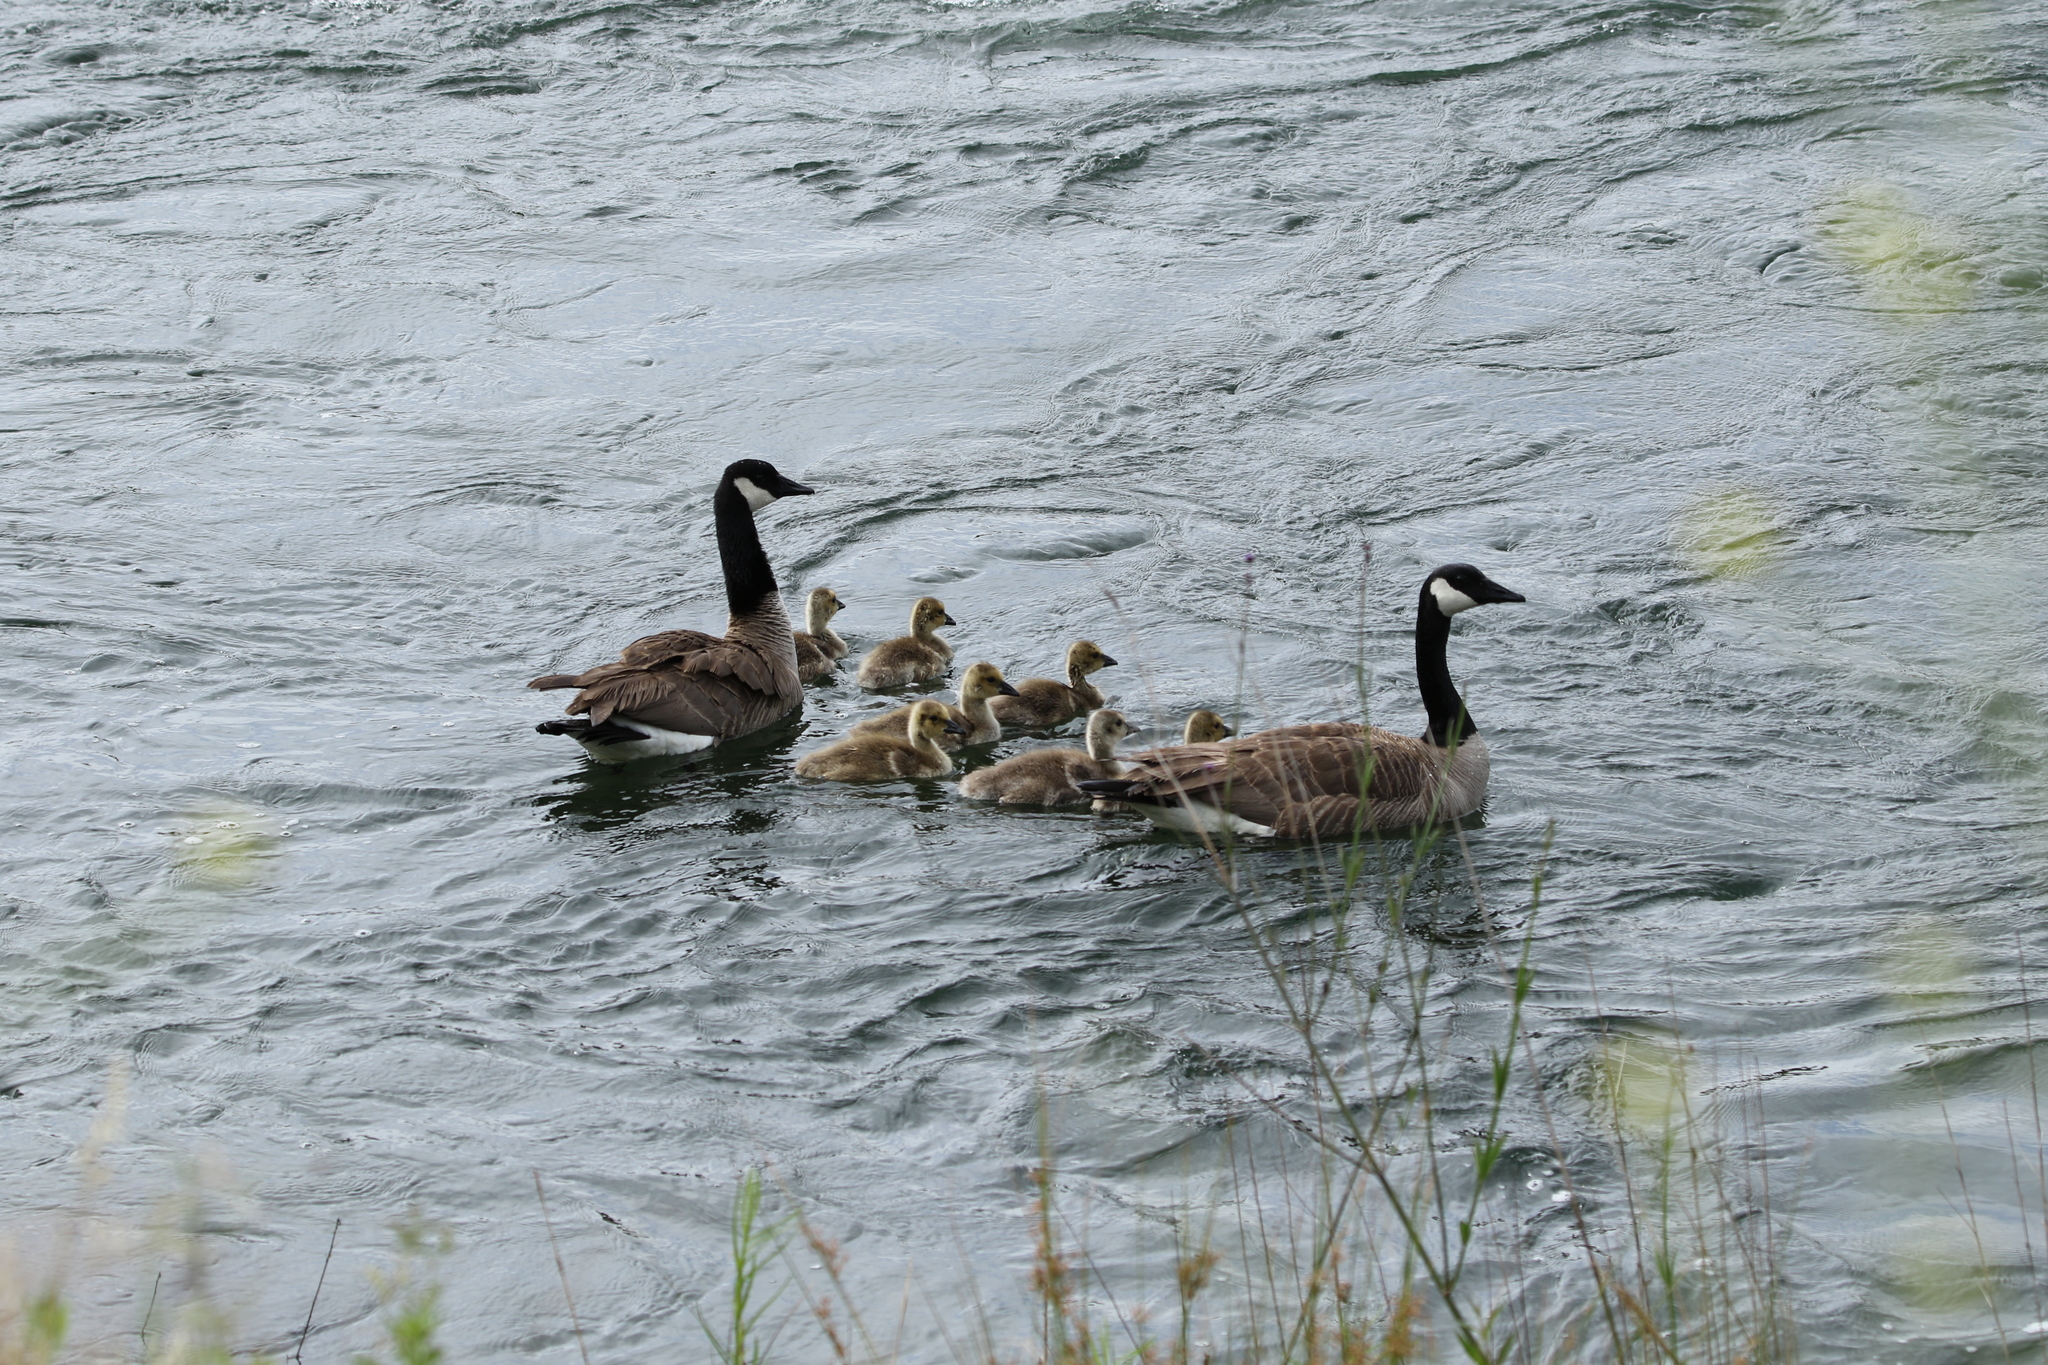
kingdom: Animalia
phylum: Chordata
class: Aves
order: Anseriformes
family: Anatidae
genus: Branta
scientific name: Branta canadensis
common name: Canada goose
